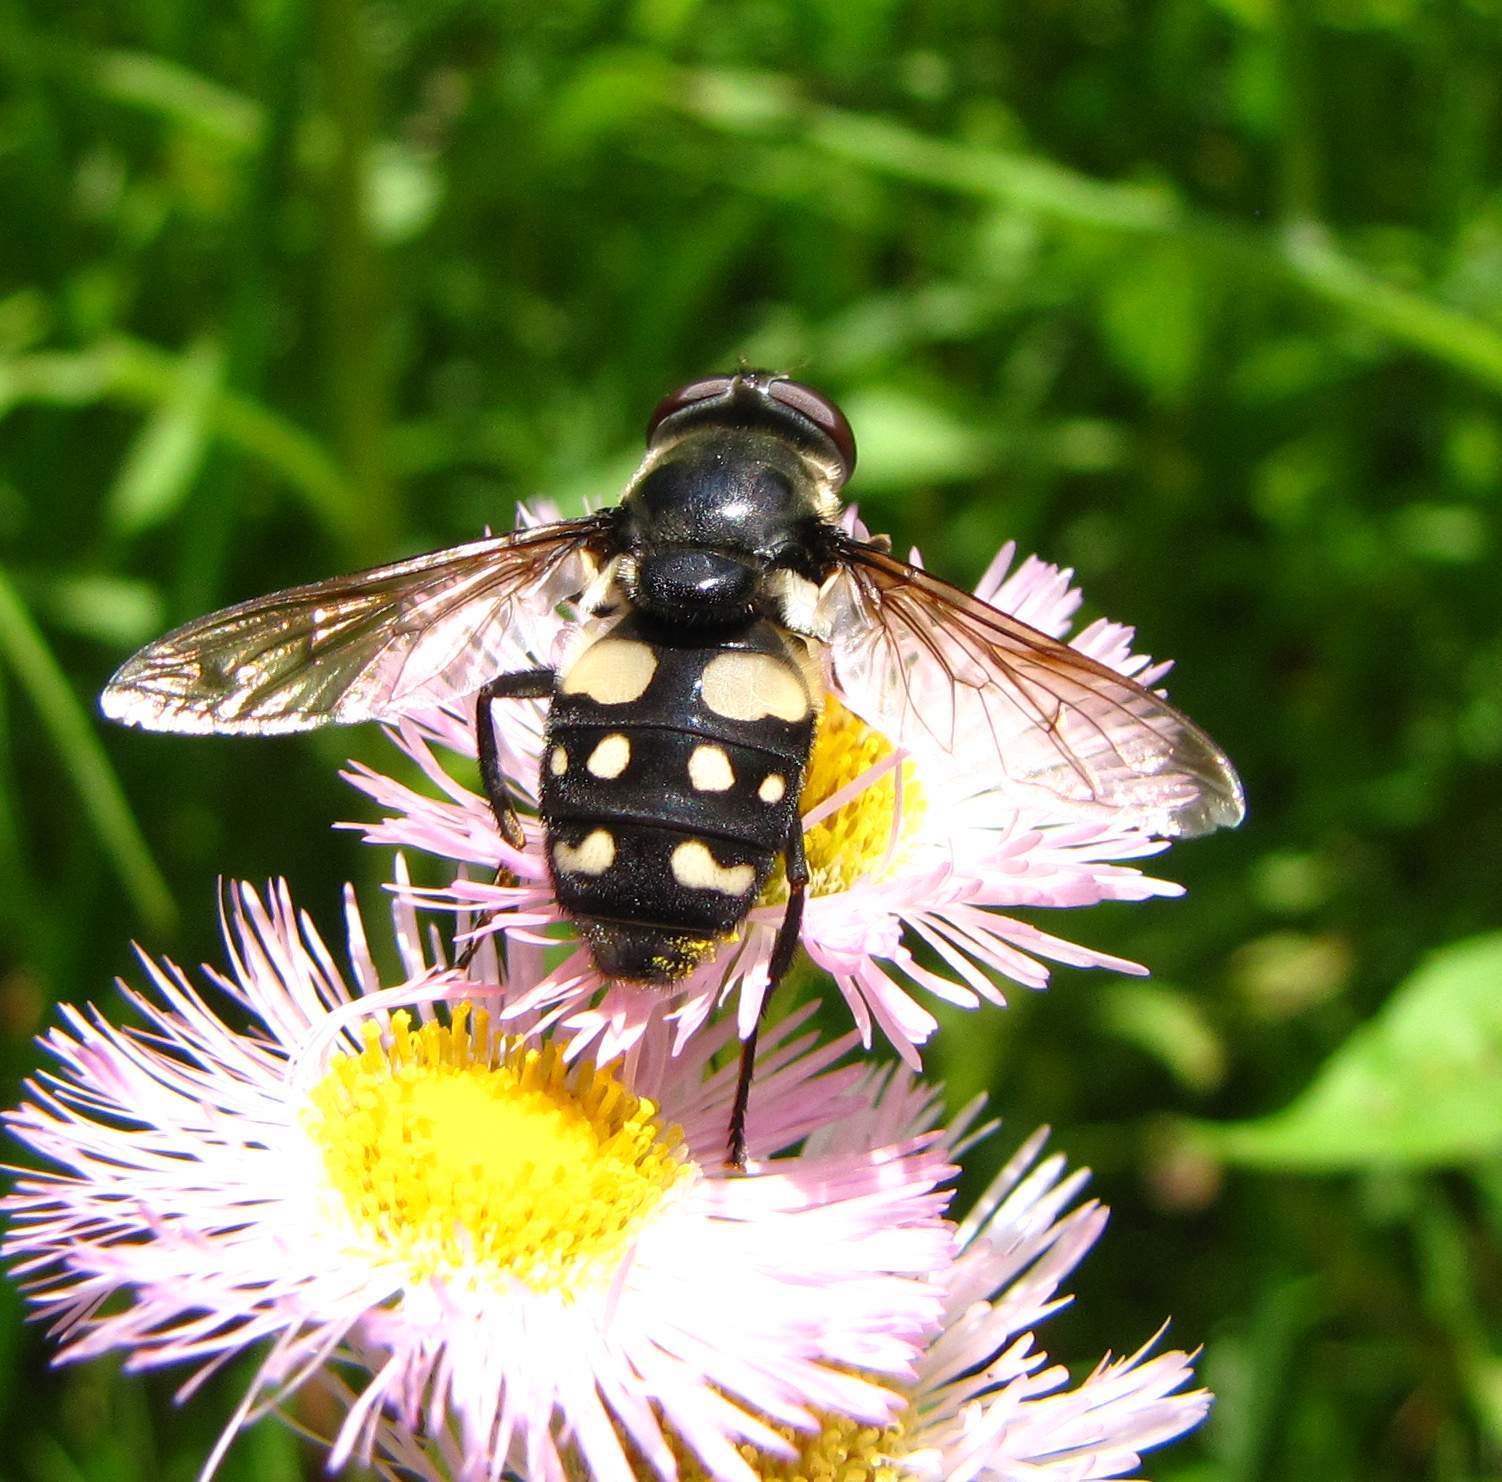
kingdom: Animalia
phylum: Arthropoda
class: Insecta
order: Diptera
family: Syrphidae
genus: Sericomyia
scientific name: Sericomyia lata
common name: White-spotted pond fly
